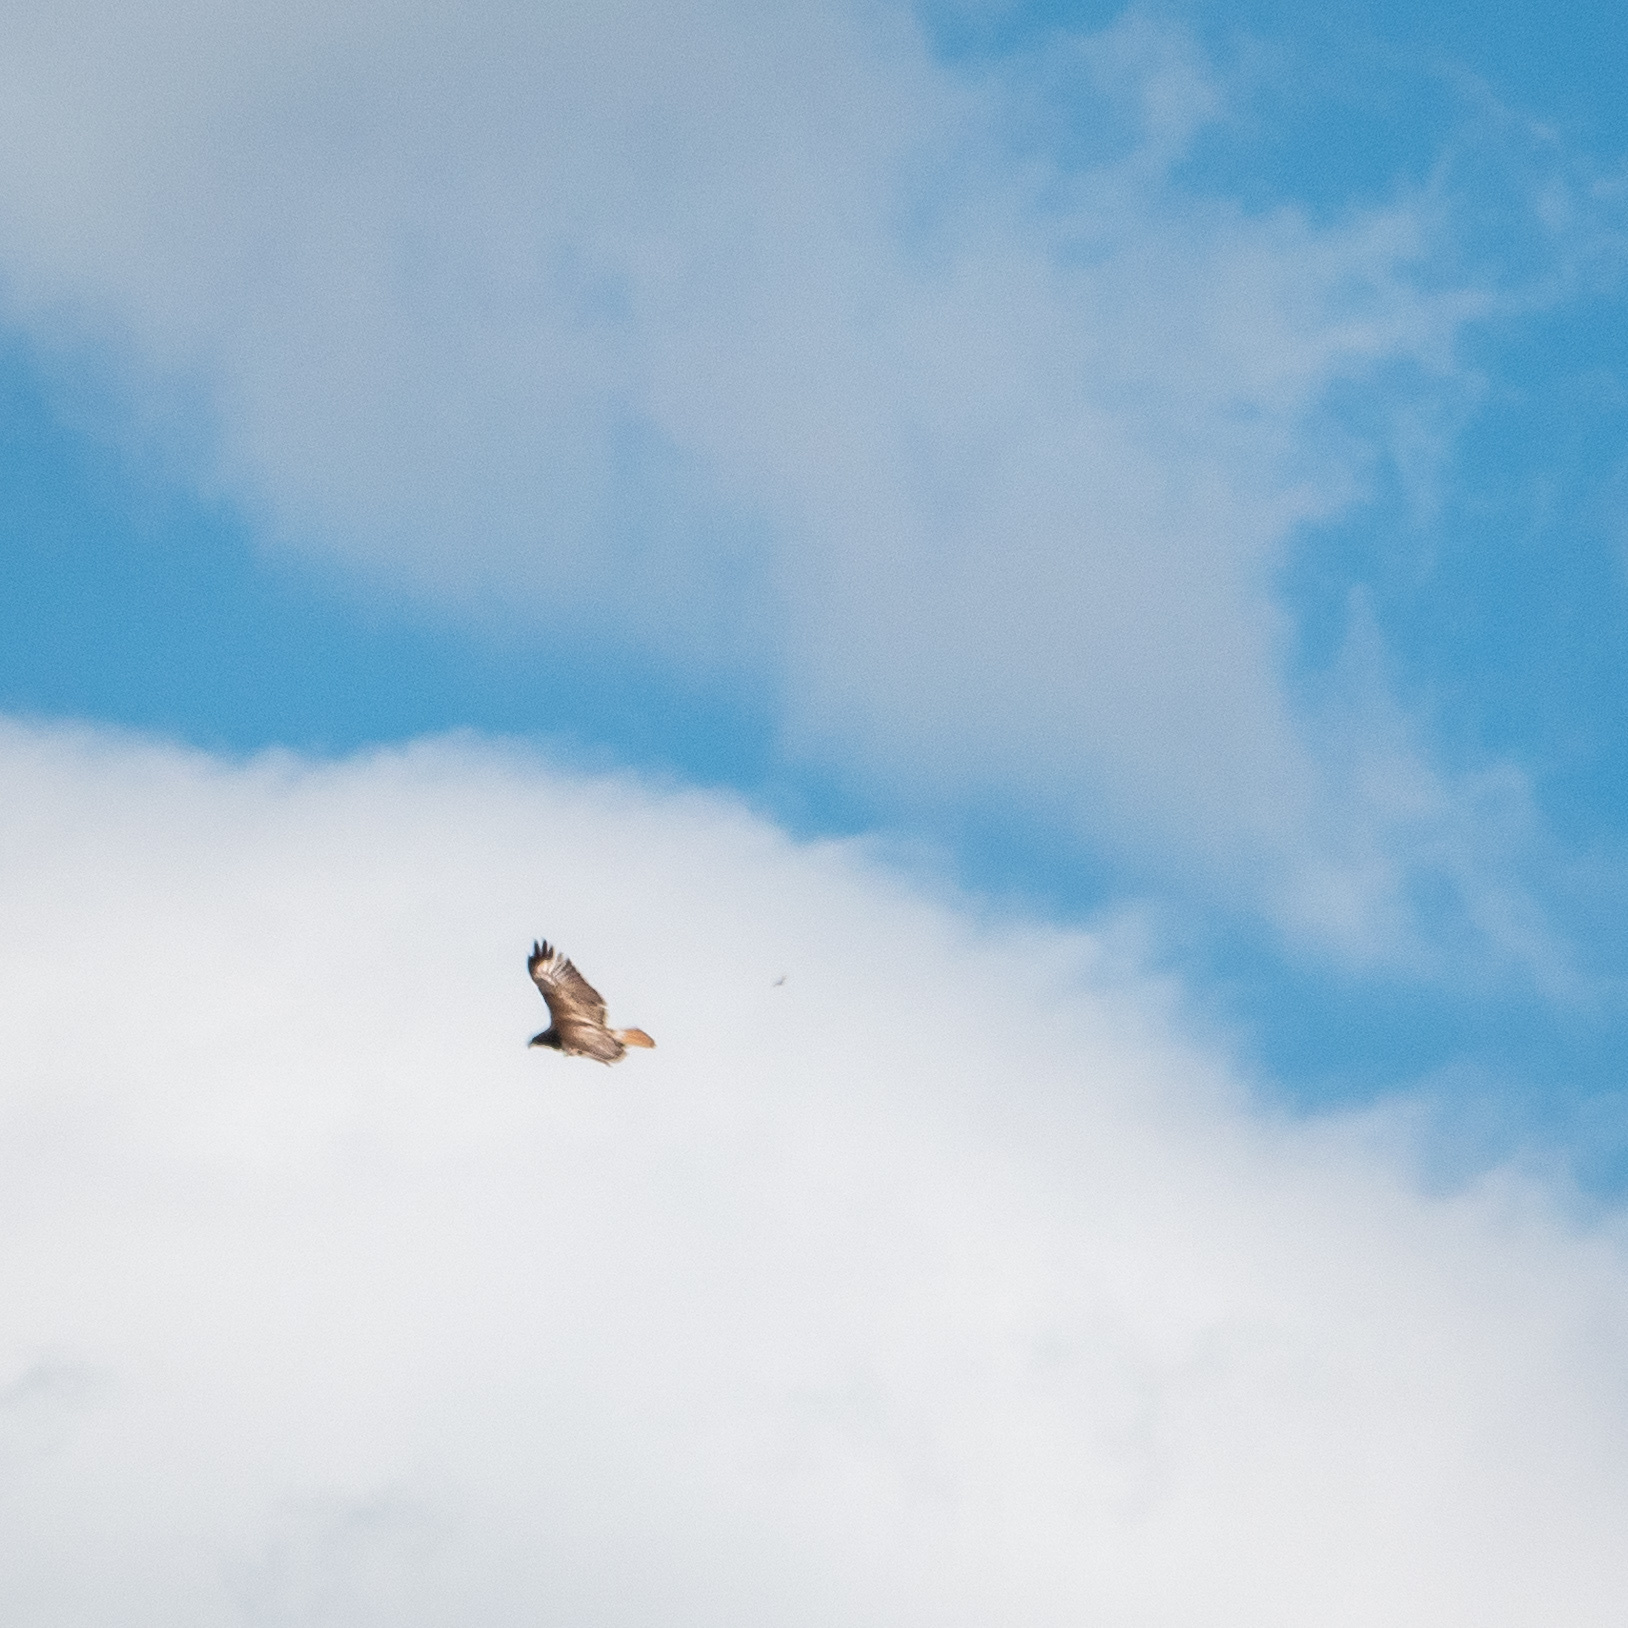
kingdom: Animalia
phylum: Chordata
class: Aves
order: Accipitriformes
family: Accipitridae
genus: Buteo
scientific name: Buteo jamaicensis
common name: Red-tailed hawk
